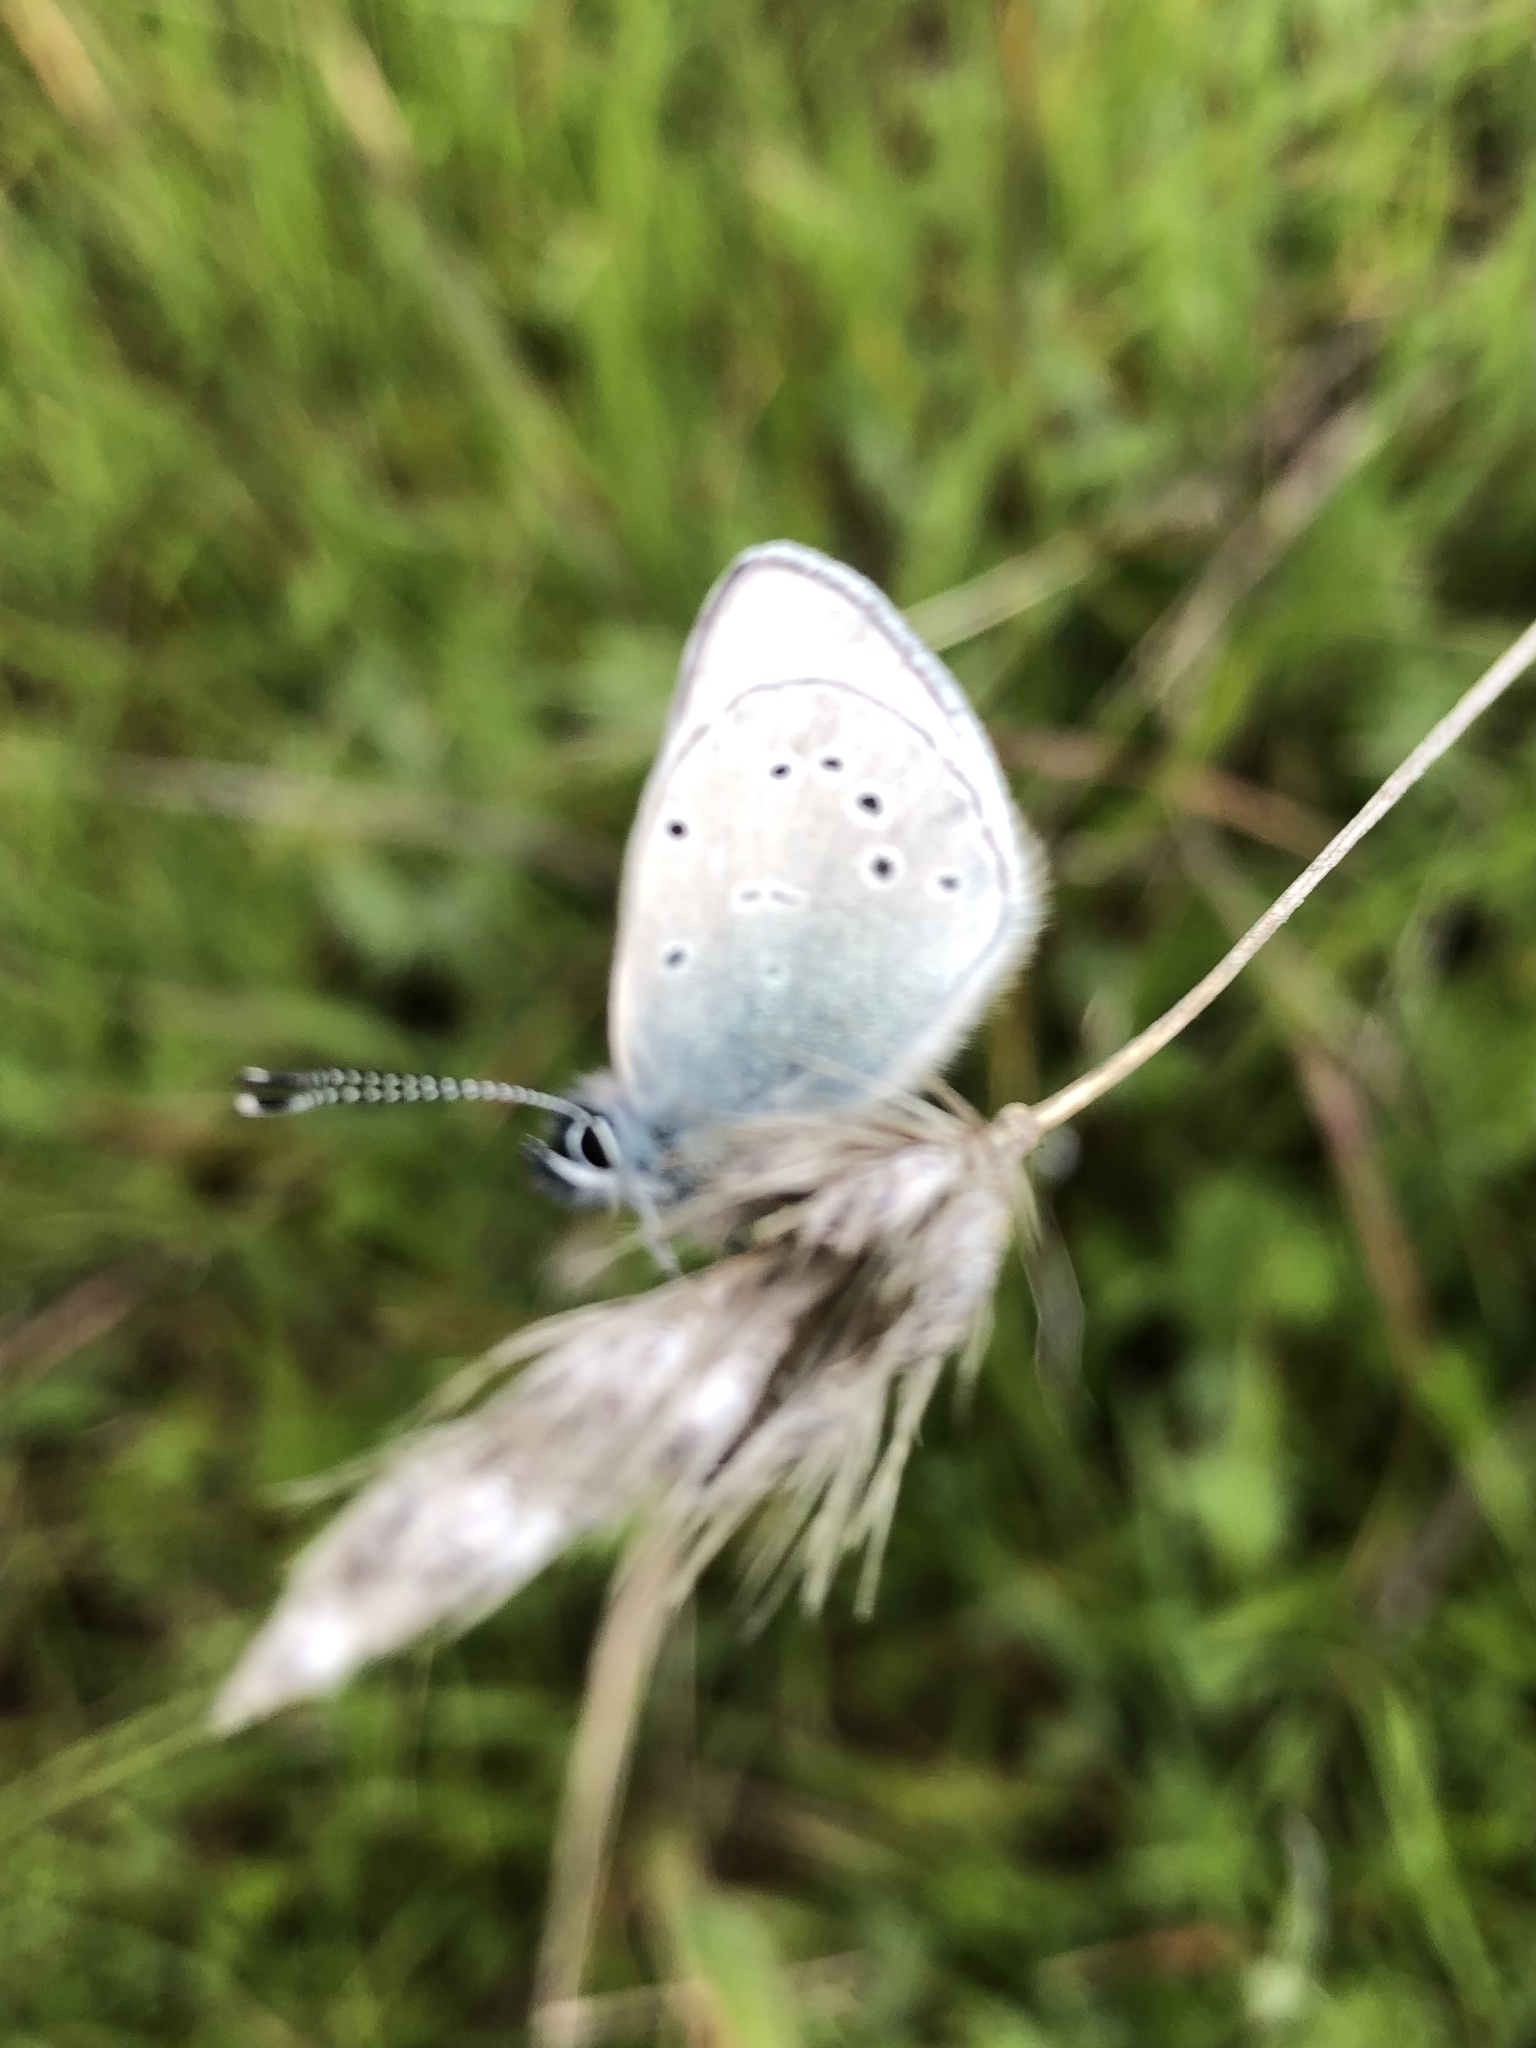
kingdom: Animalia
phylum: Arthropoda
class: Insecta
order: Lepidoptera
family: Lycaenidae
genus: Glaucopsyche
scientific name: Glaucopsyche lygdamus
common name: Silvery blue
